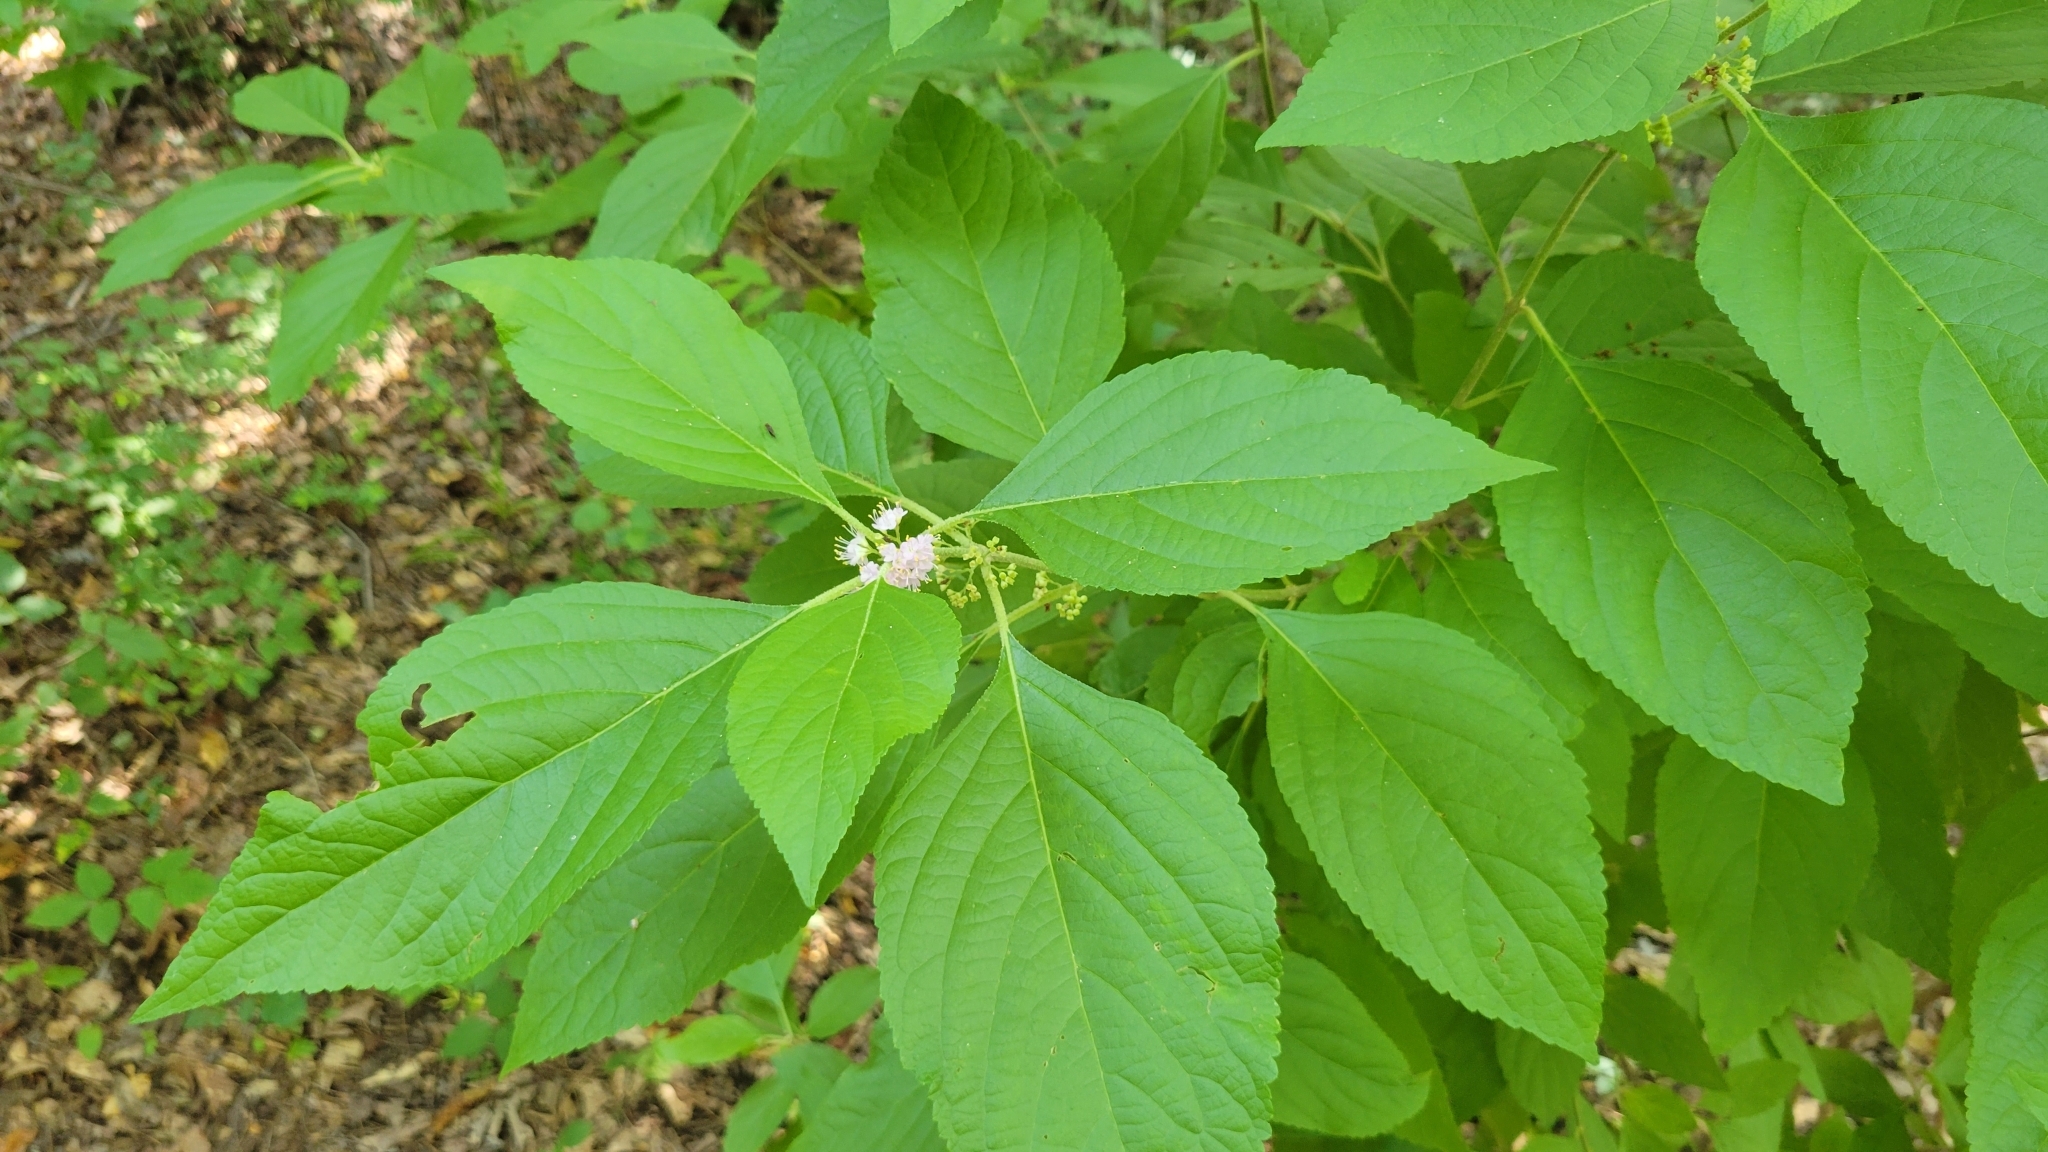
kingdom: Plantae
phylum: Tracheophyta
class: Magnoliopsida
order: Lamiales
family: Lamiaceae
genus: Callicarpa
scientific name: Callicarpa americana
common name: American beautyberry
